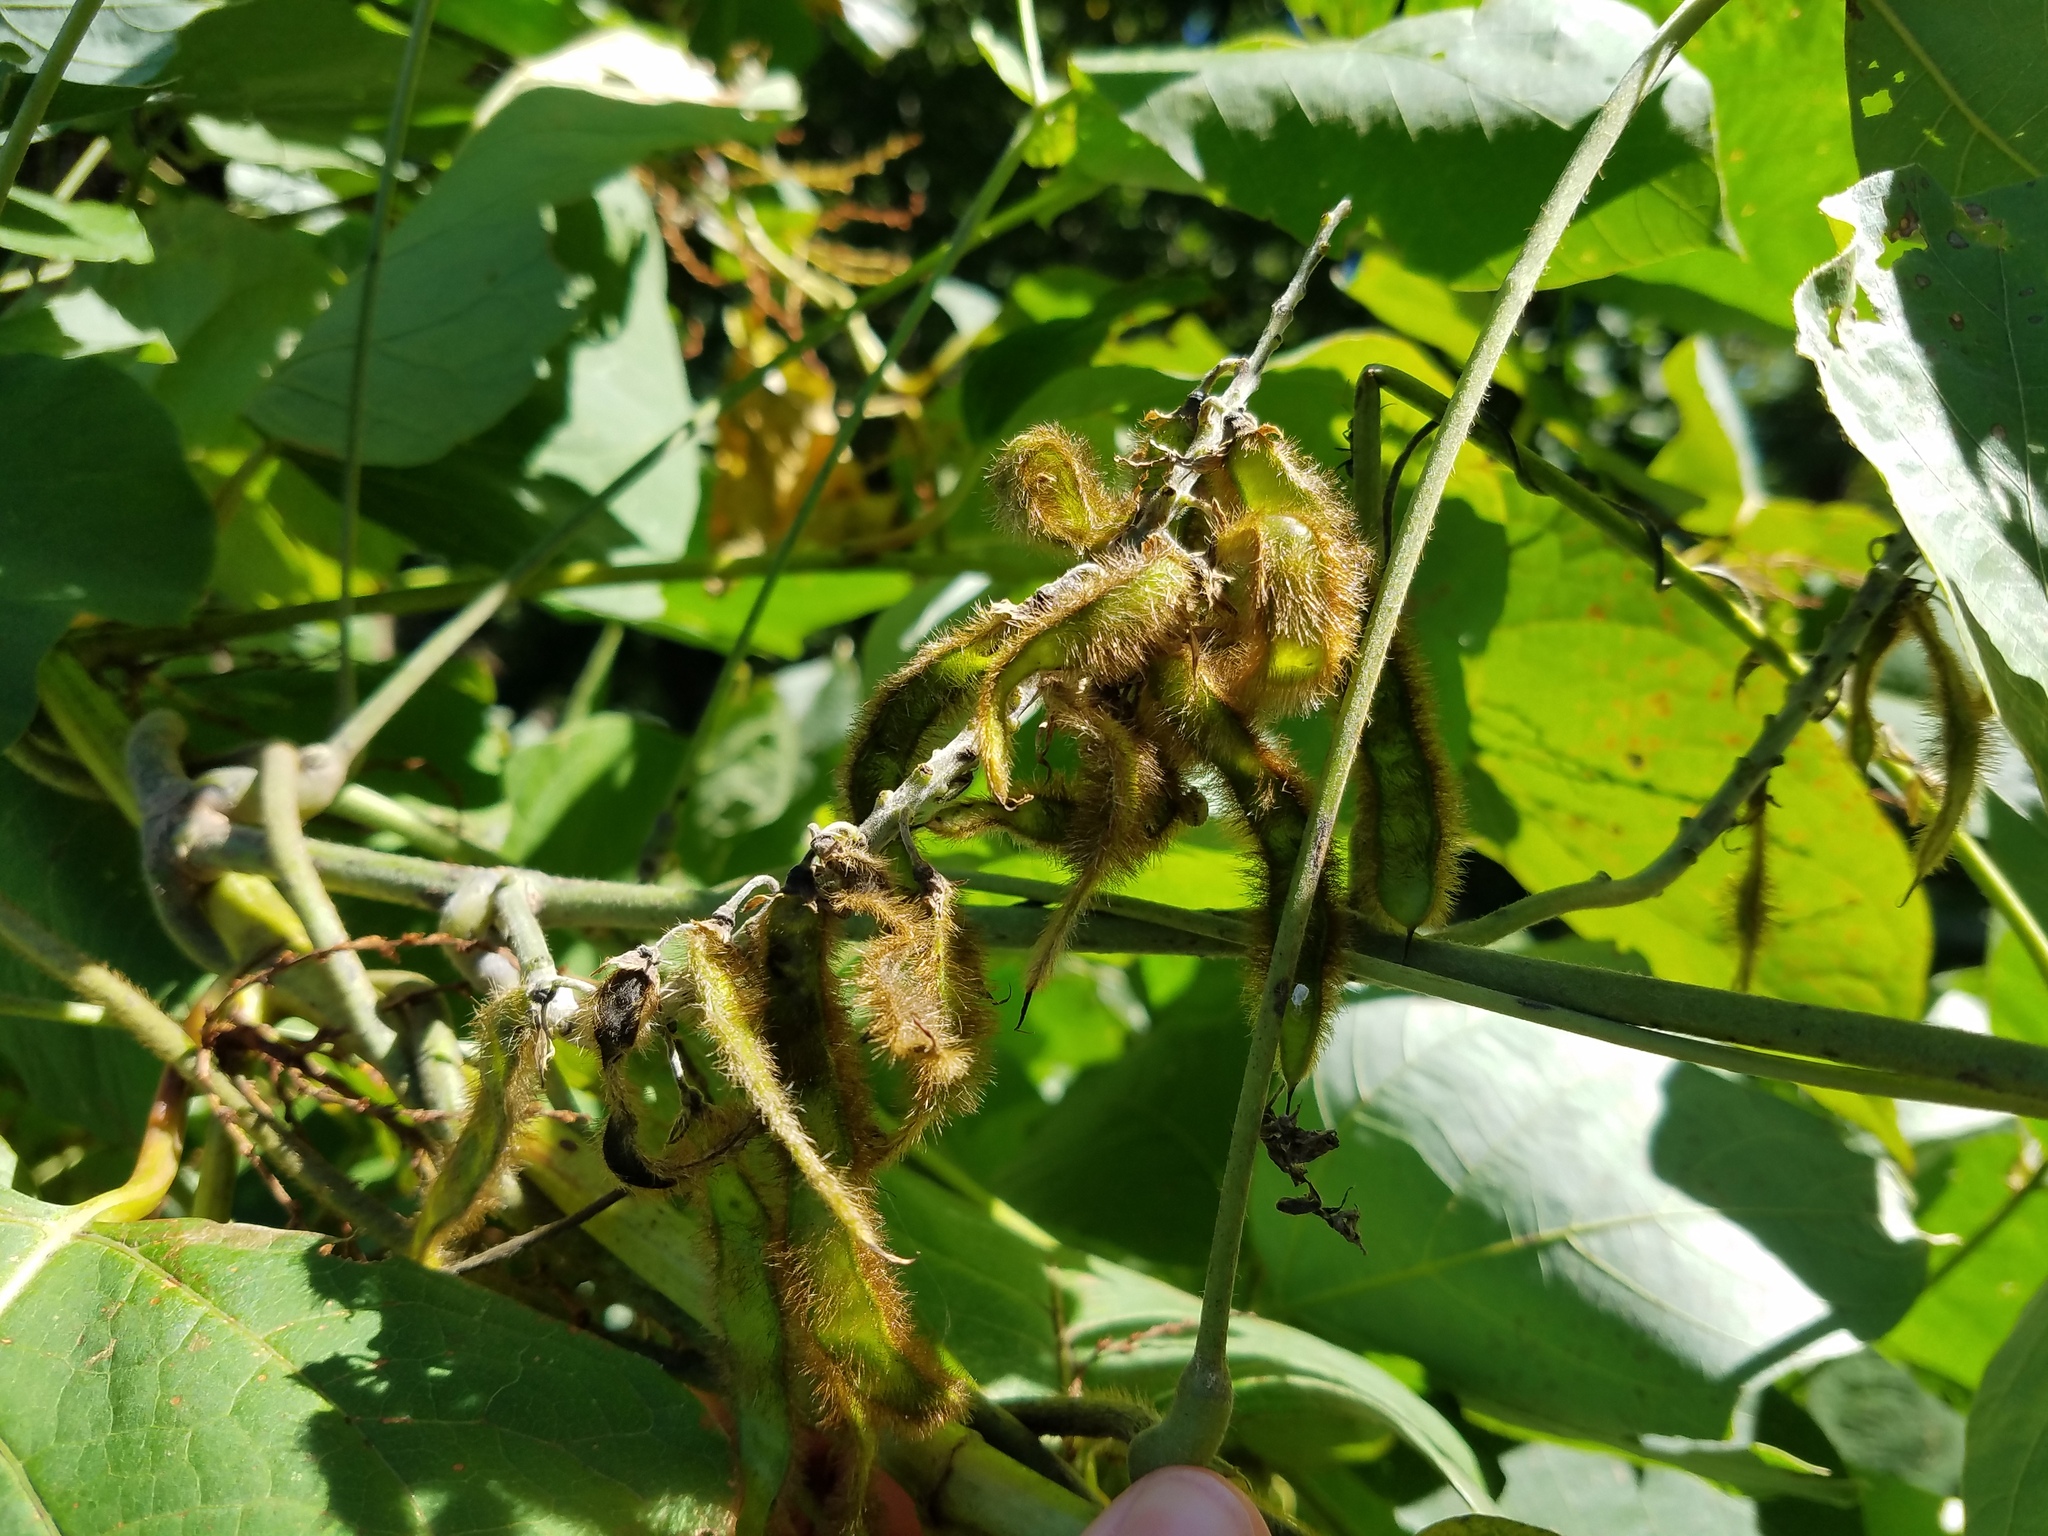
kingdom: Plantae
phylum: Tracheophyta
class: Magnoliopsida
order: Fabales
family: Fabaceae
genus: Pueraria
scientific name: Pueraria montana
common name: Kudzu
